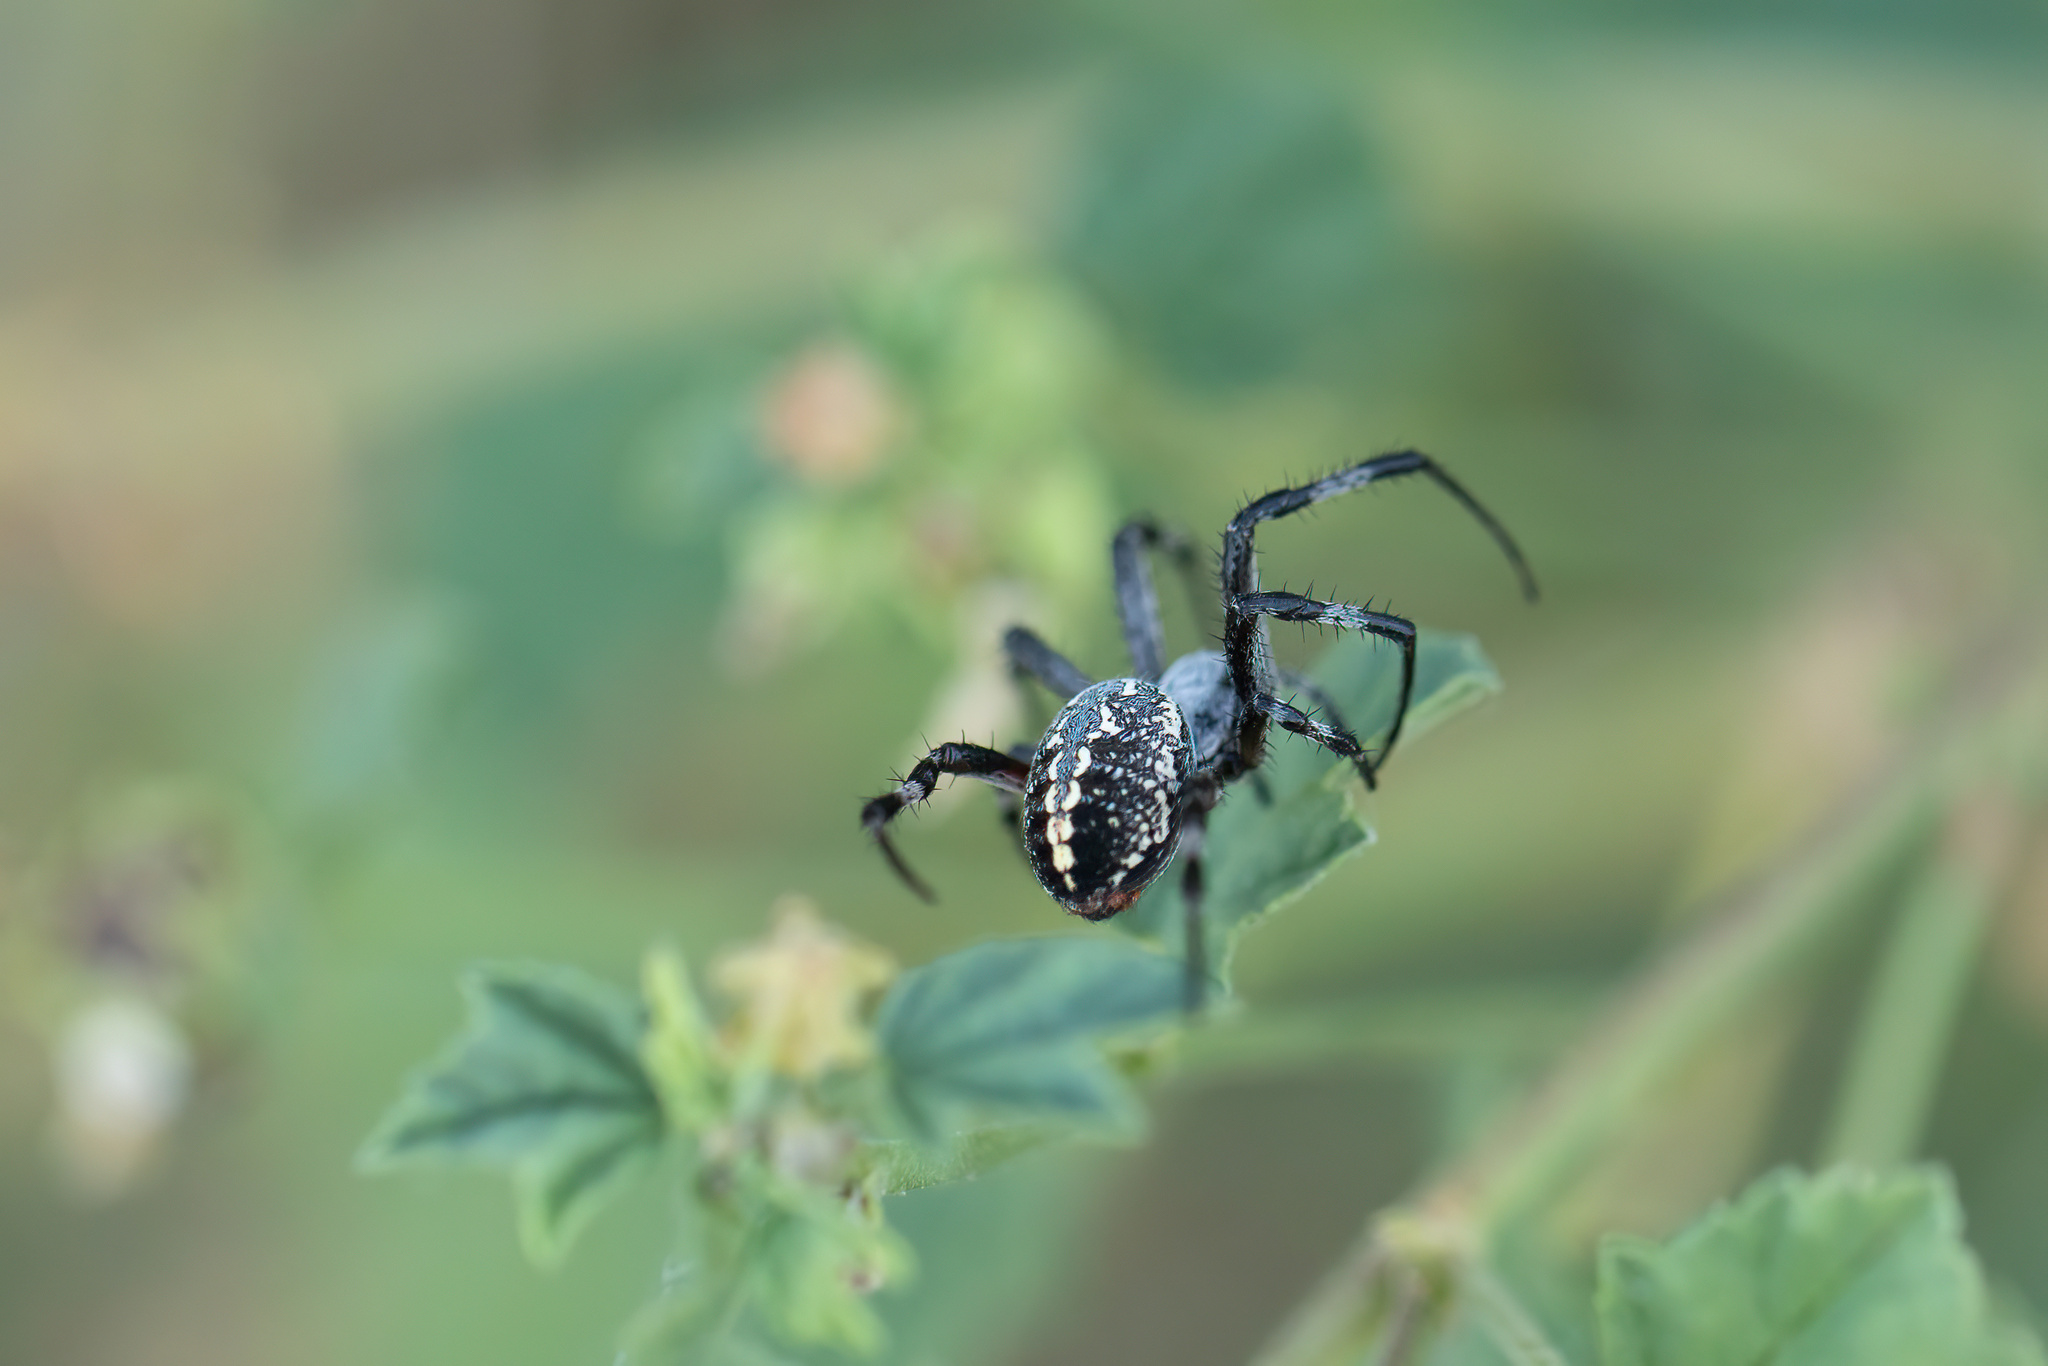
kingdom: Animalia
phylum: Arthropoda
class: Arachnida
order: Araneae
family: Araneidae
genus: Neoscona
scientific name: Neoscona oaxacensis
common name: Orb weavers
